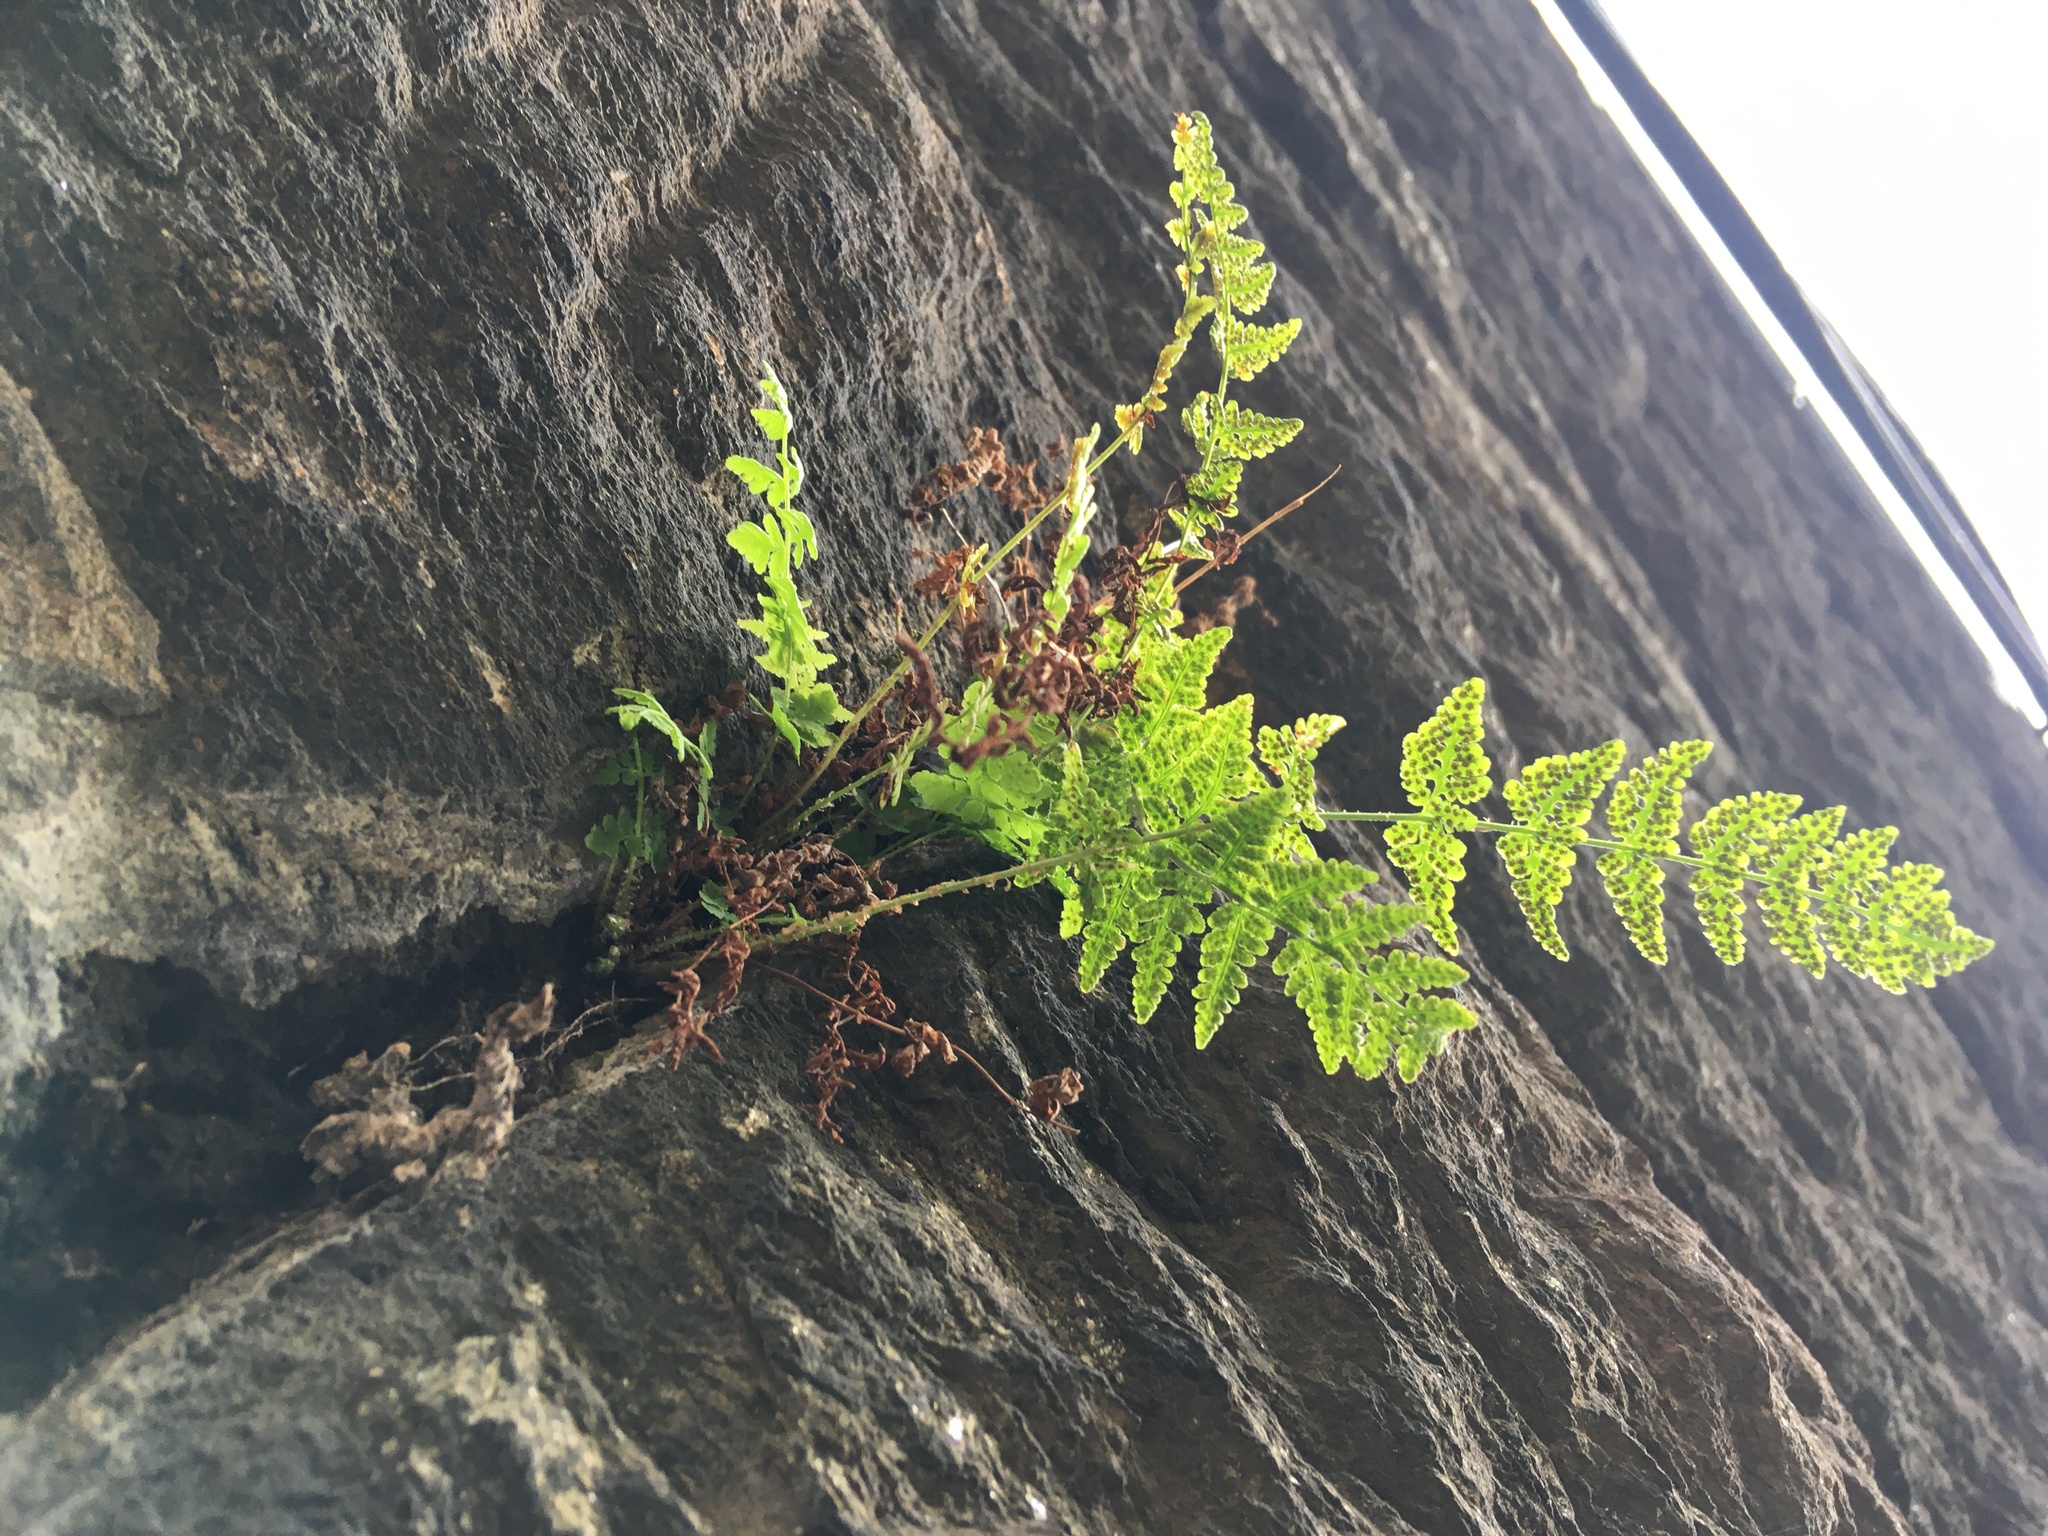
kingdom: Plantae
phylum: Tracheophyta
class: Polypodiopsida
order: Polypodiales
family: Woodsiaceae
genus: Physematium
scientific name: Physematium obtusum
